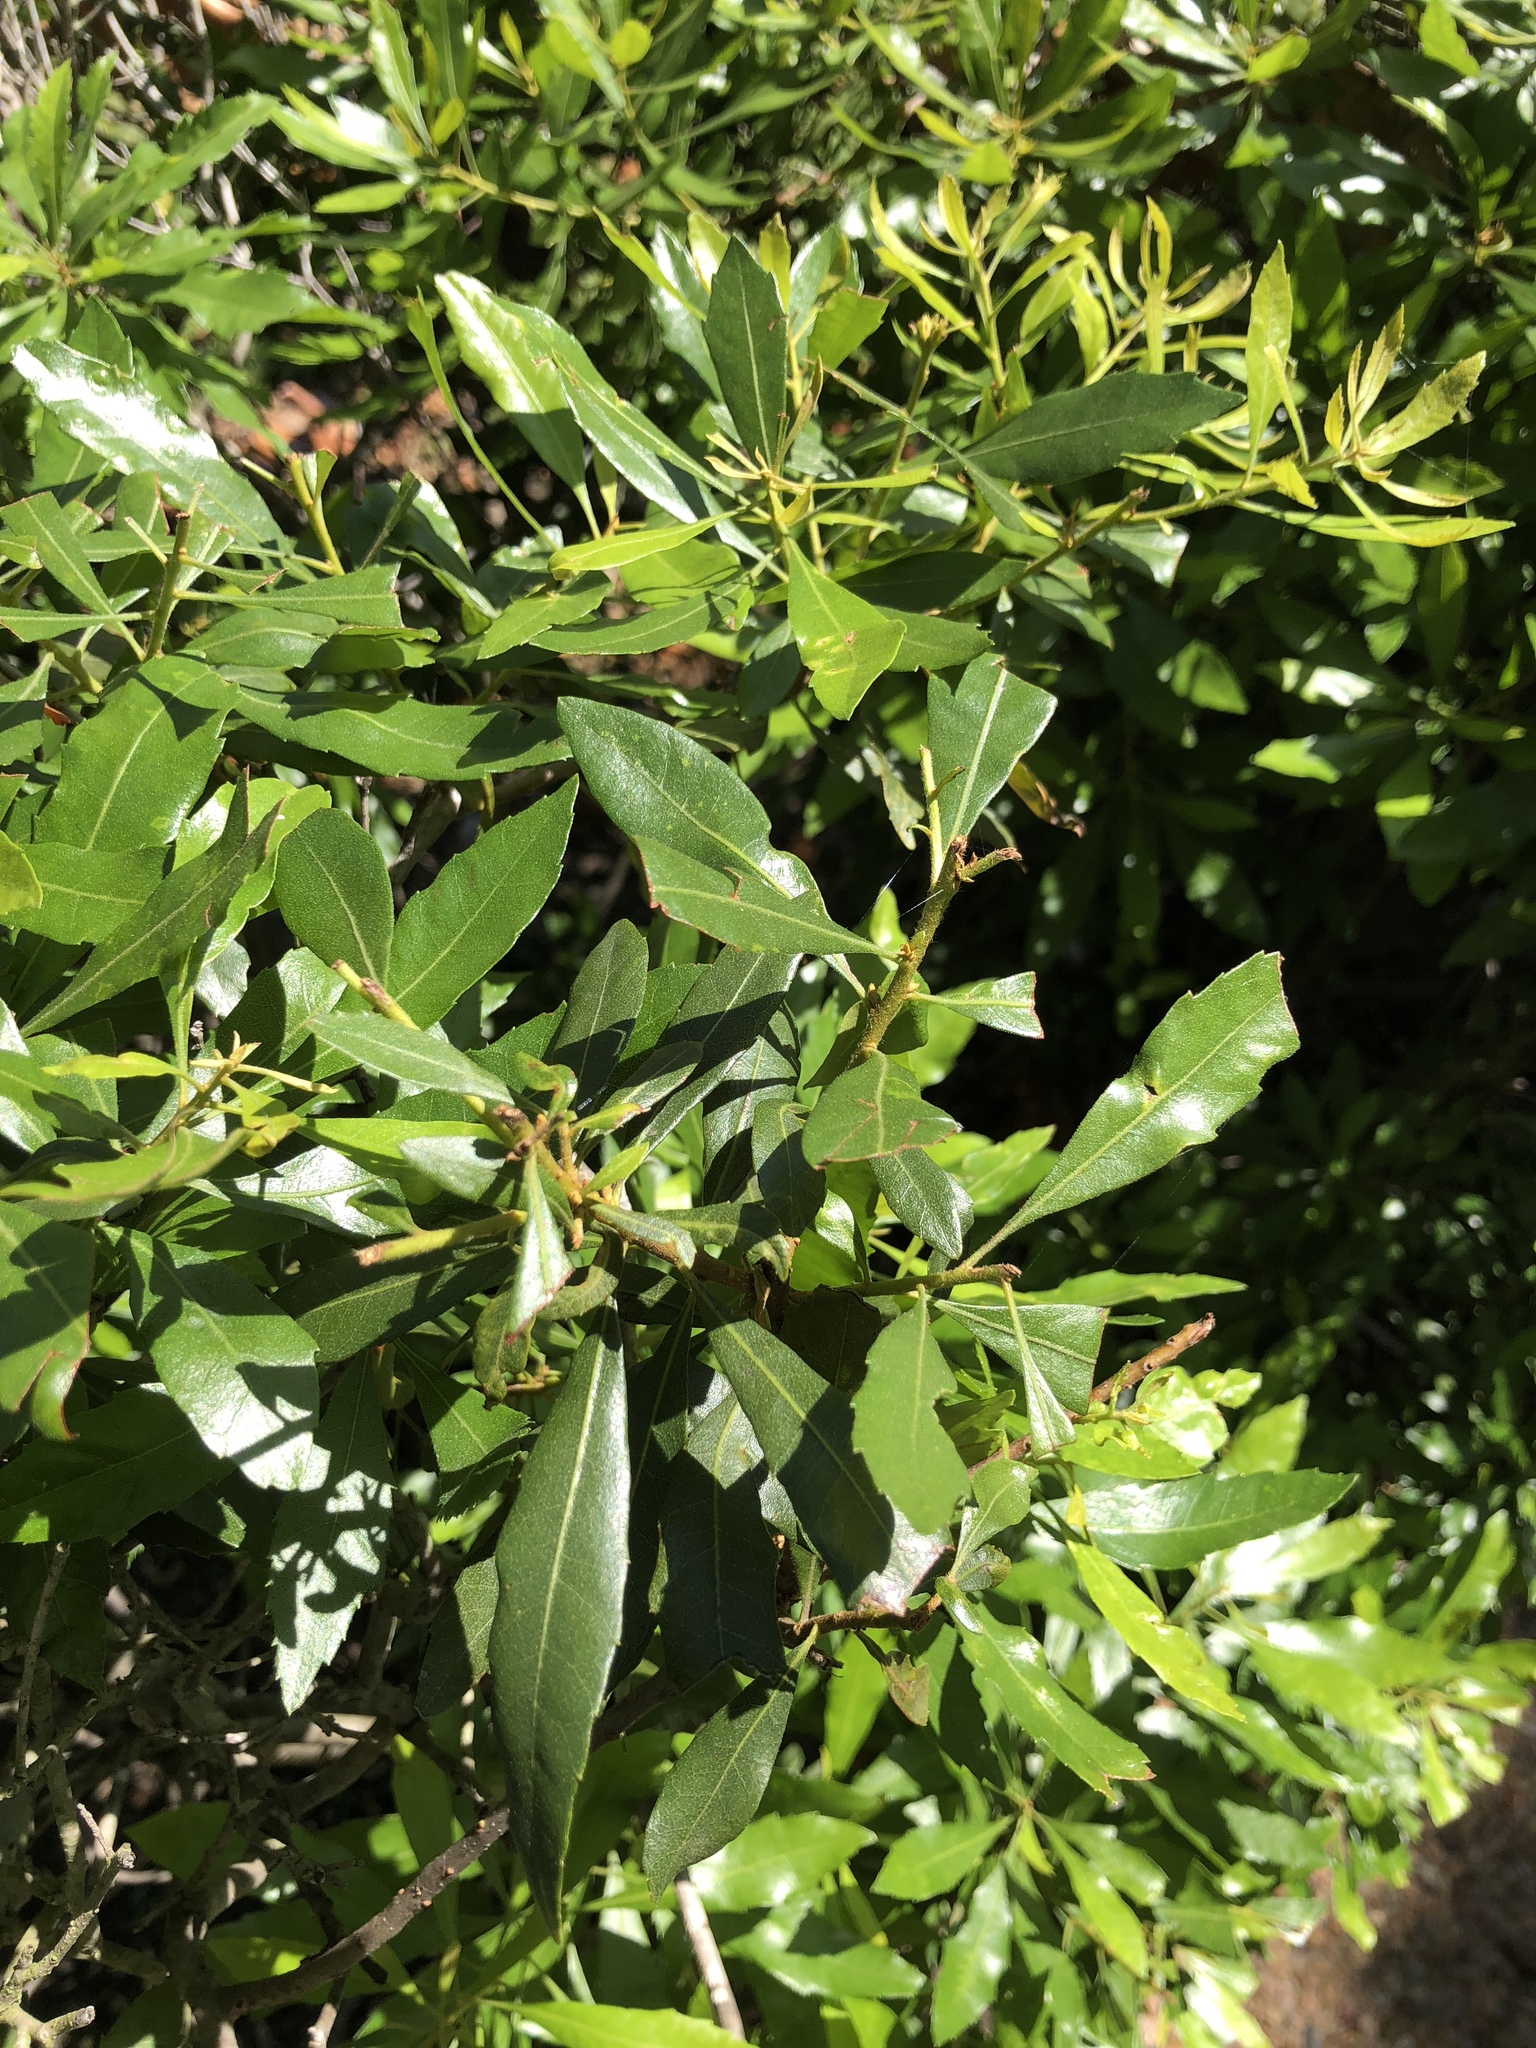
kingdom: Plantae
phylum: Tracheophyta
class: Magnoliopsida
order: Fagales
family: Myricaceae
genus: Morella
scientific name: Morella cerifera
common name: Wax myrtle
